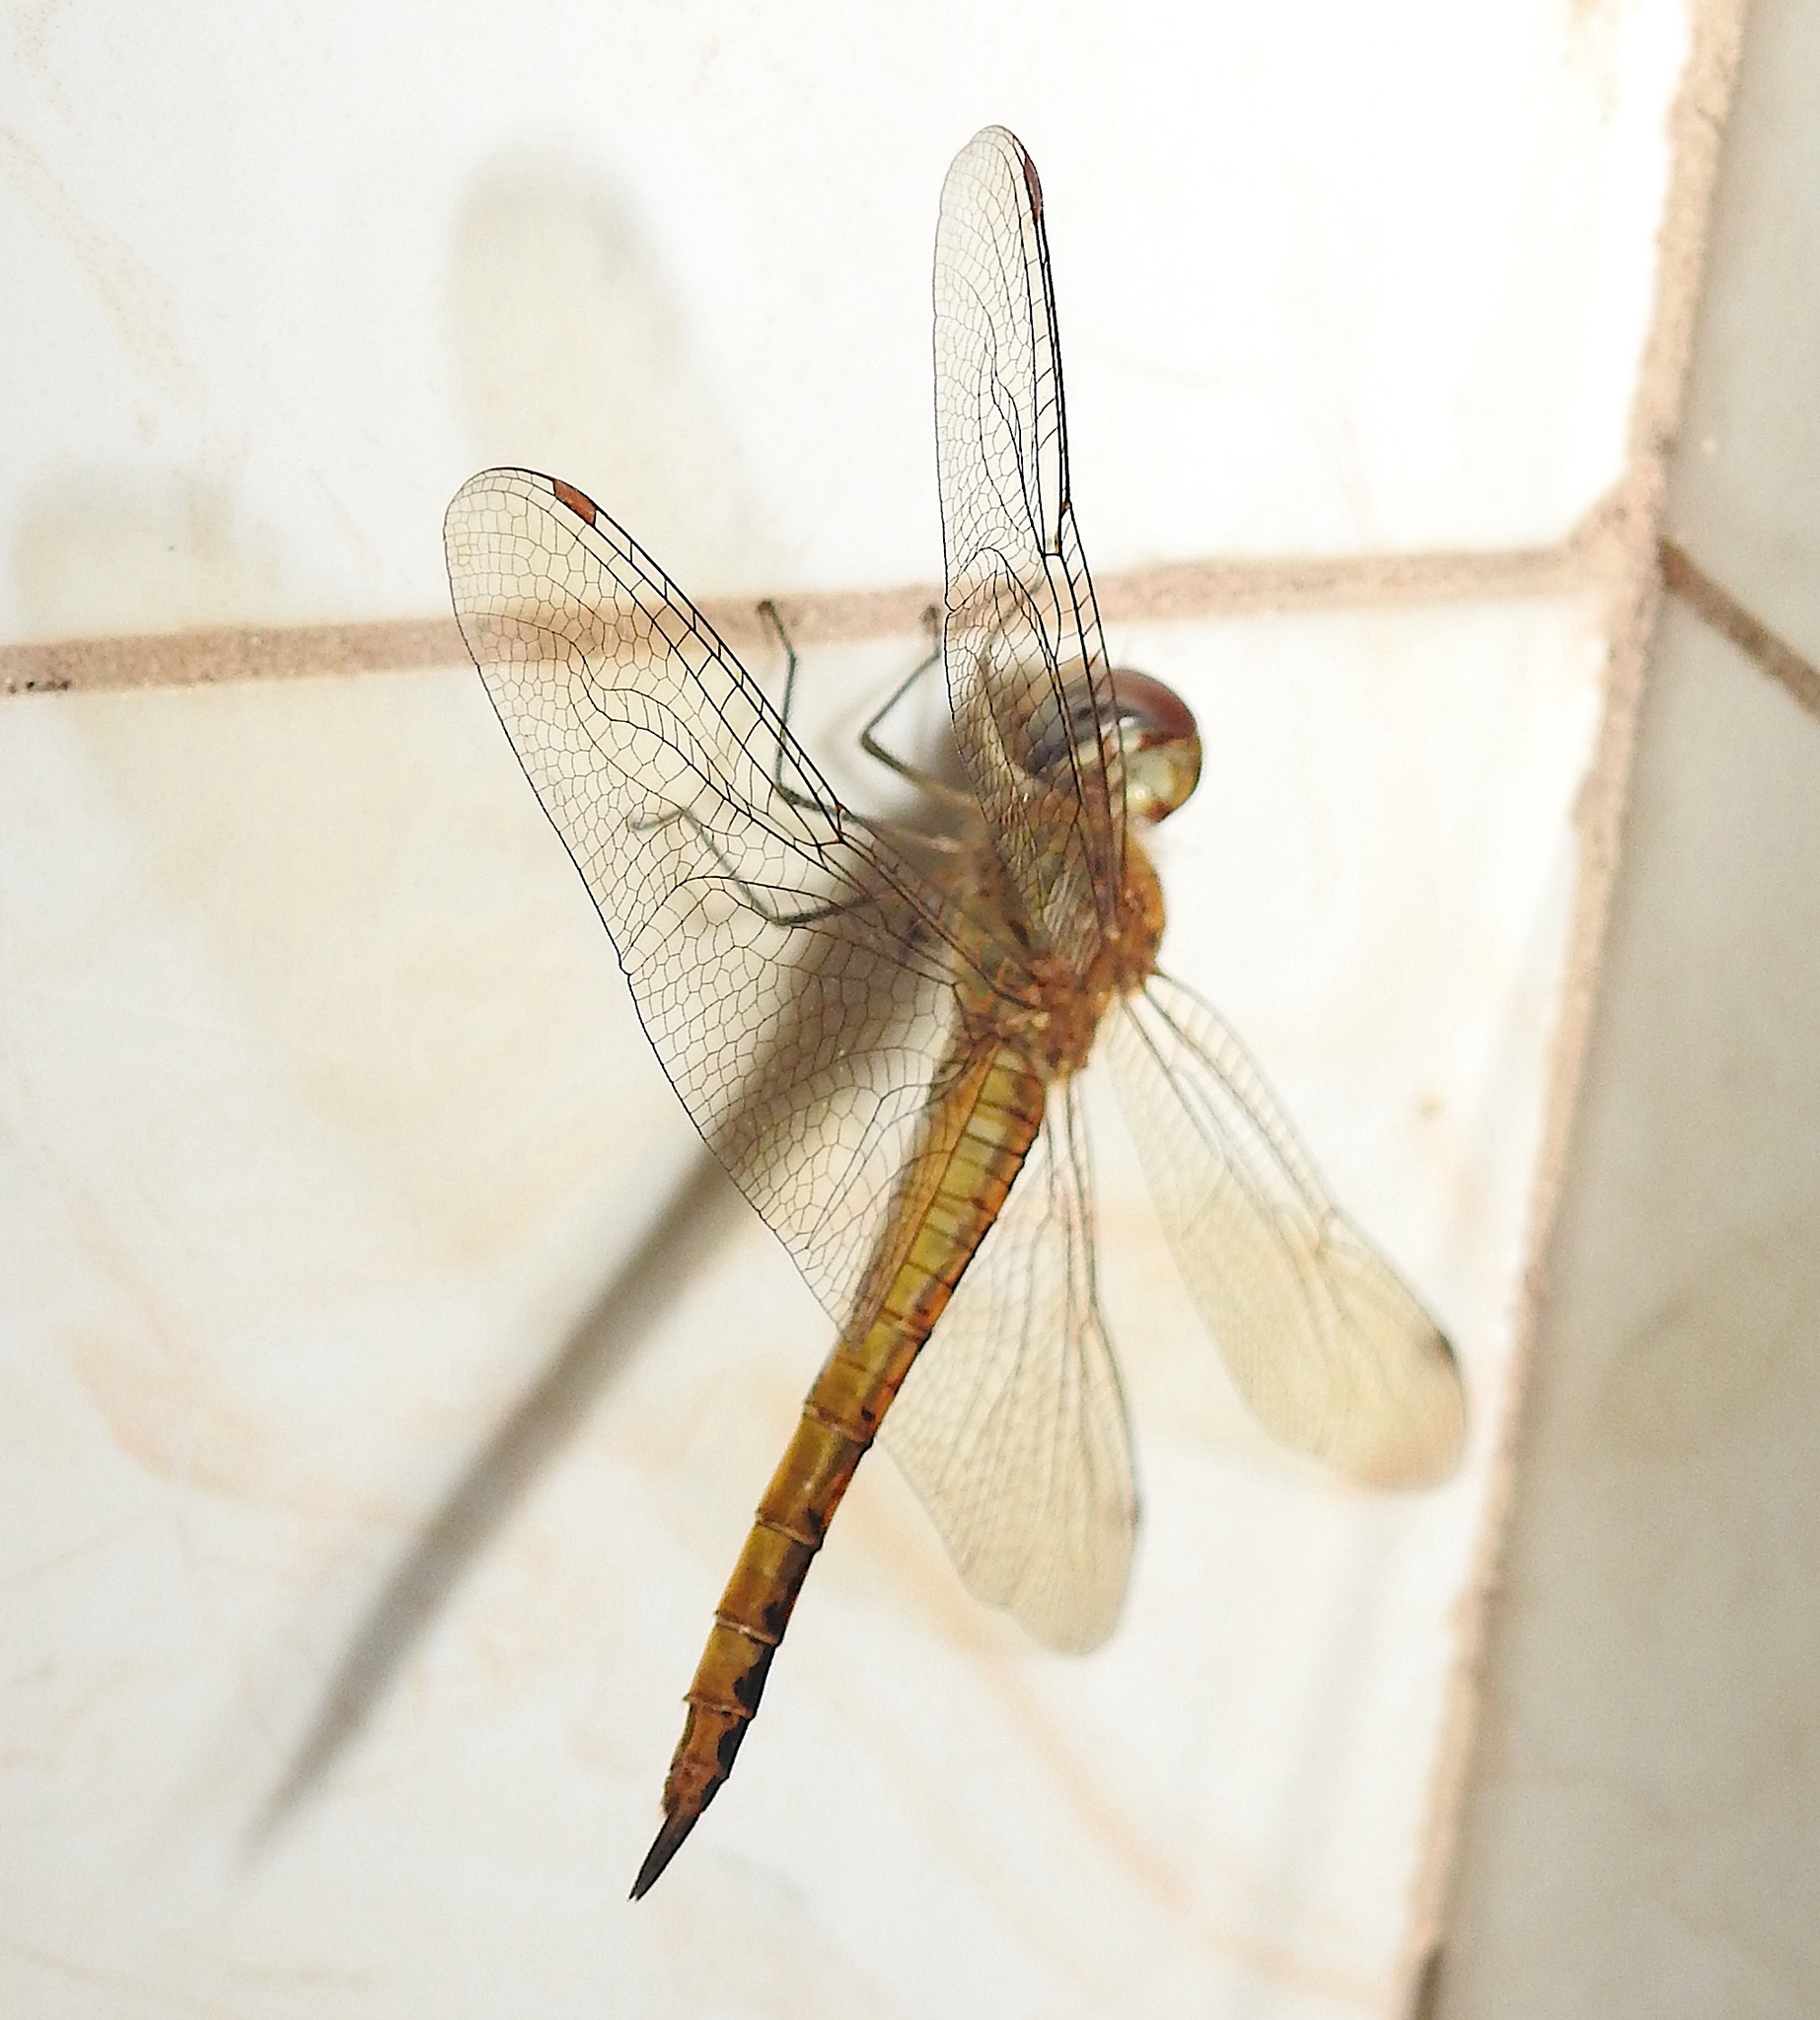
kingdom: Animalia
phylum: Arthropoda
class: Insecta
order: Odonata
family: Libellulidae
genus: Pantala
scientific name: Pantala flavescens
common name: Wandering glider
